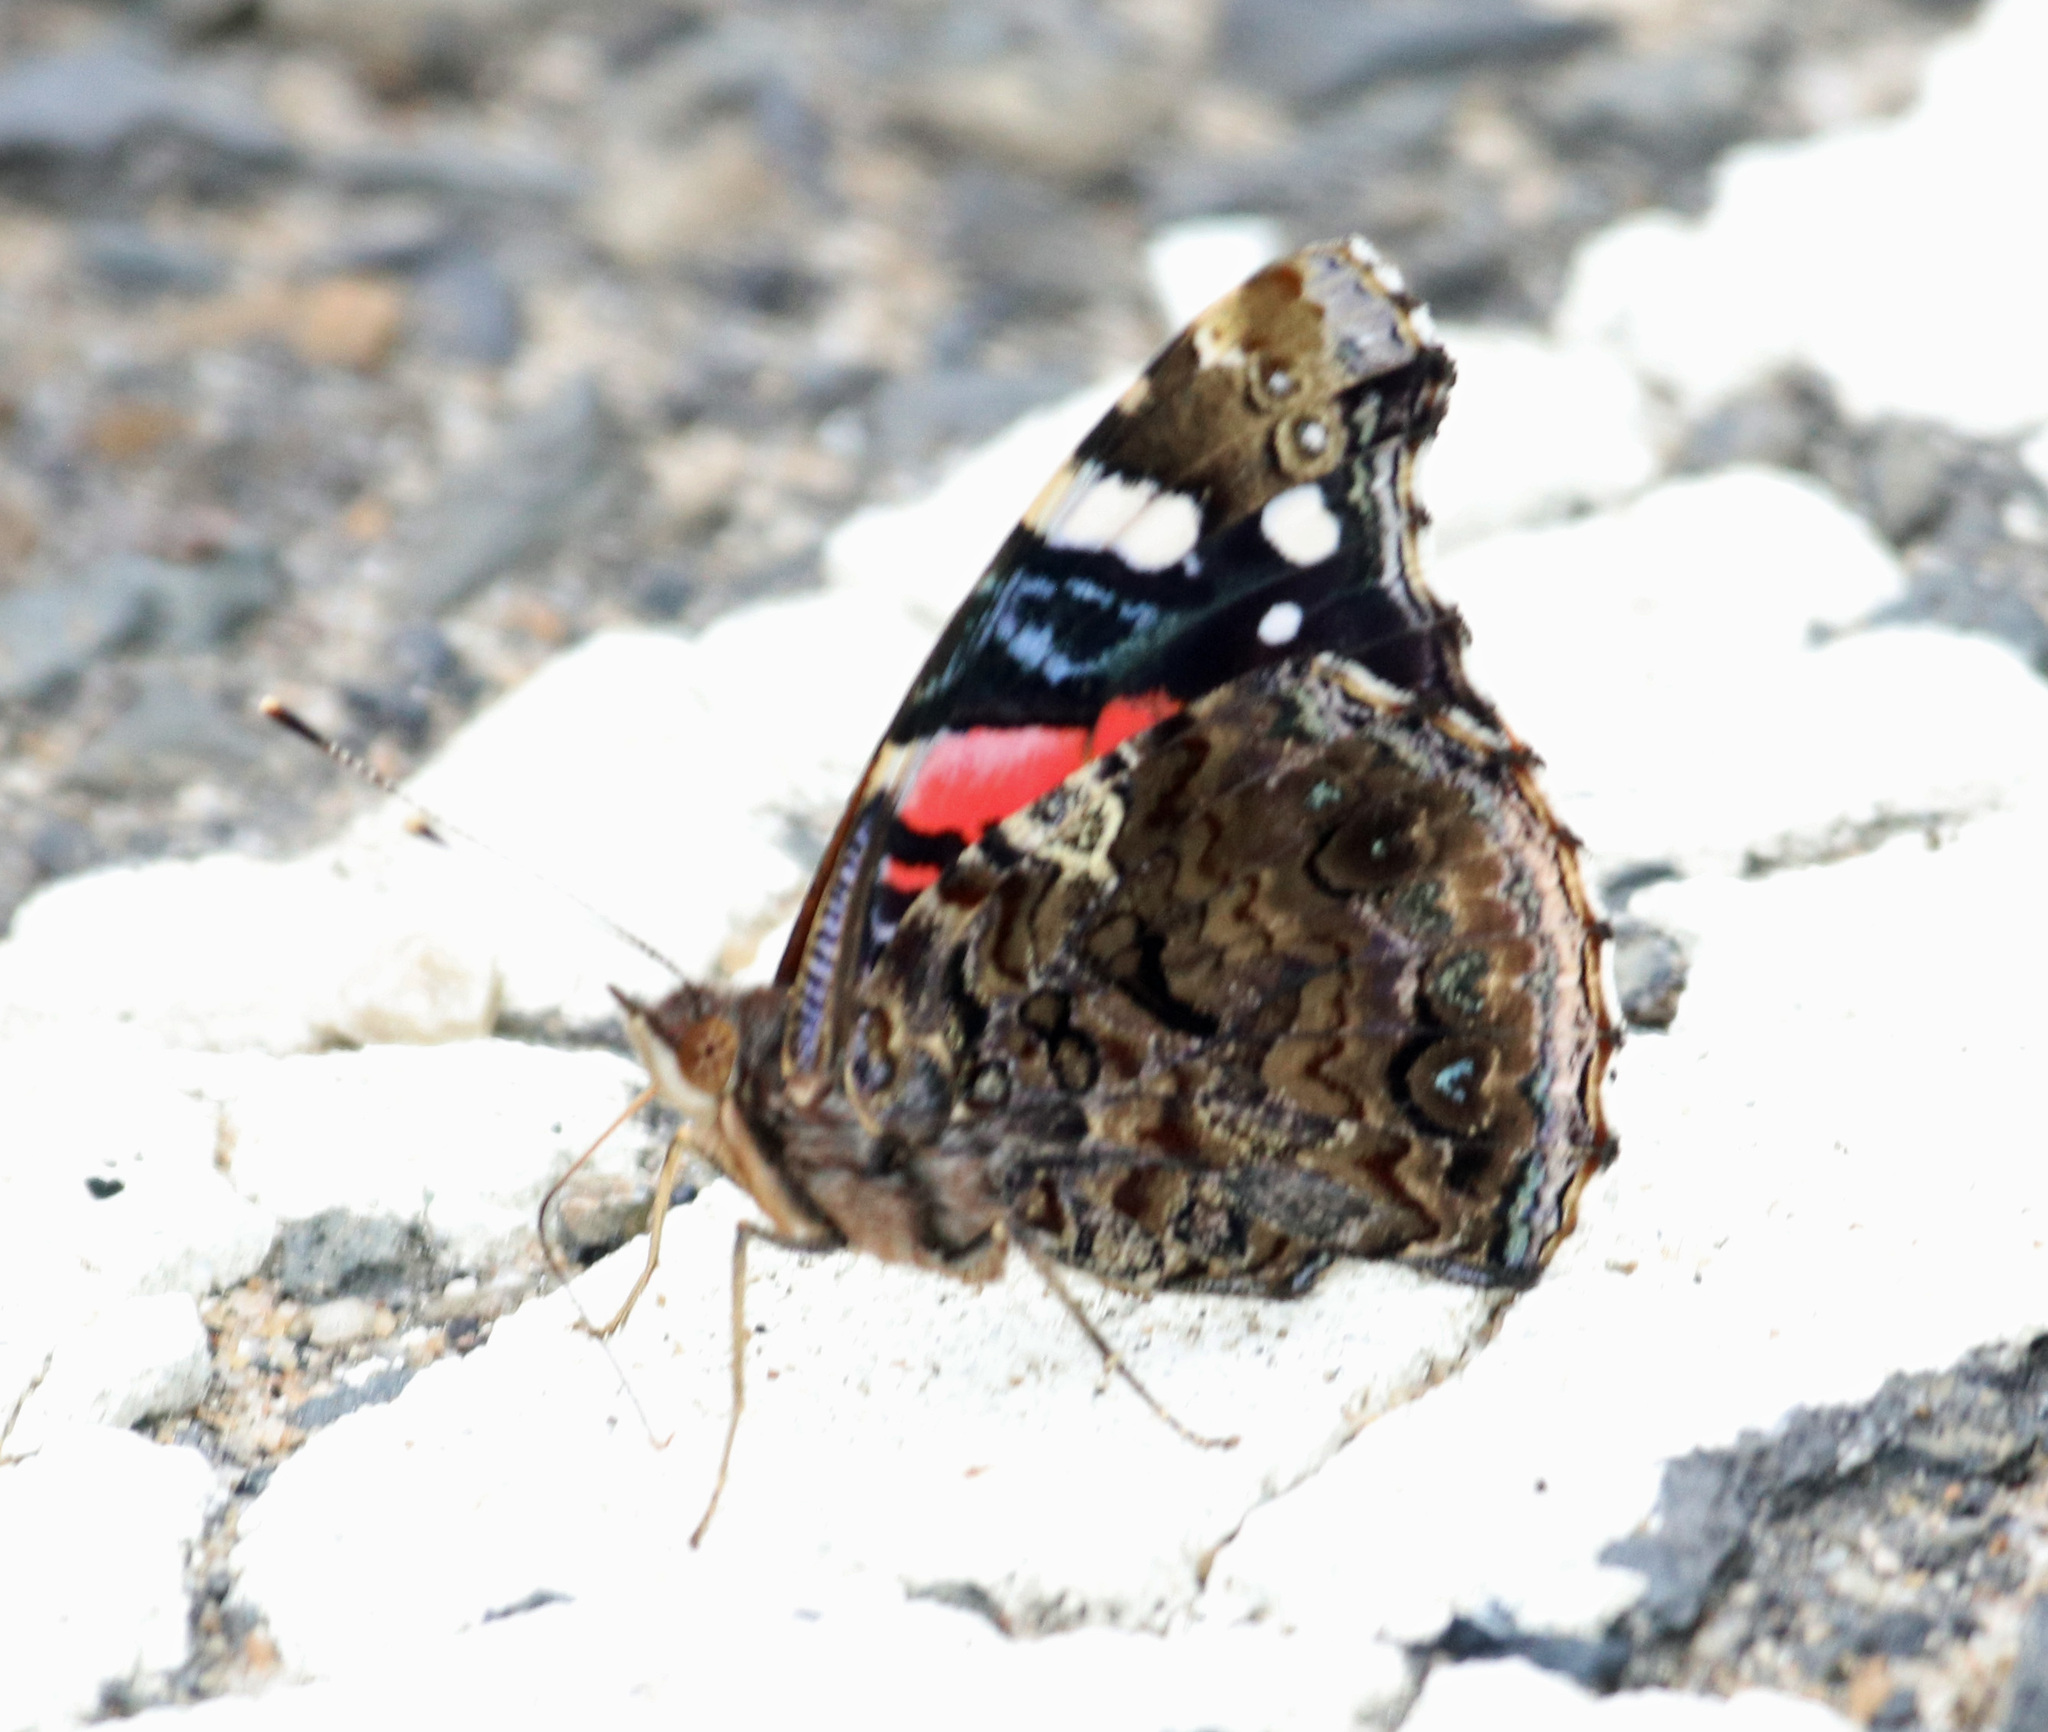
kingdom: Animalia
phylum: Arthropoda
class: Insecta
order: Lepidoptera
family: Nymphalidae
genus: Vanessa
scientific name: Vanessa atalanta
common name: Red admiral
